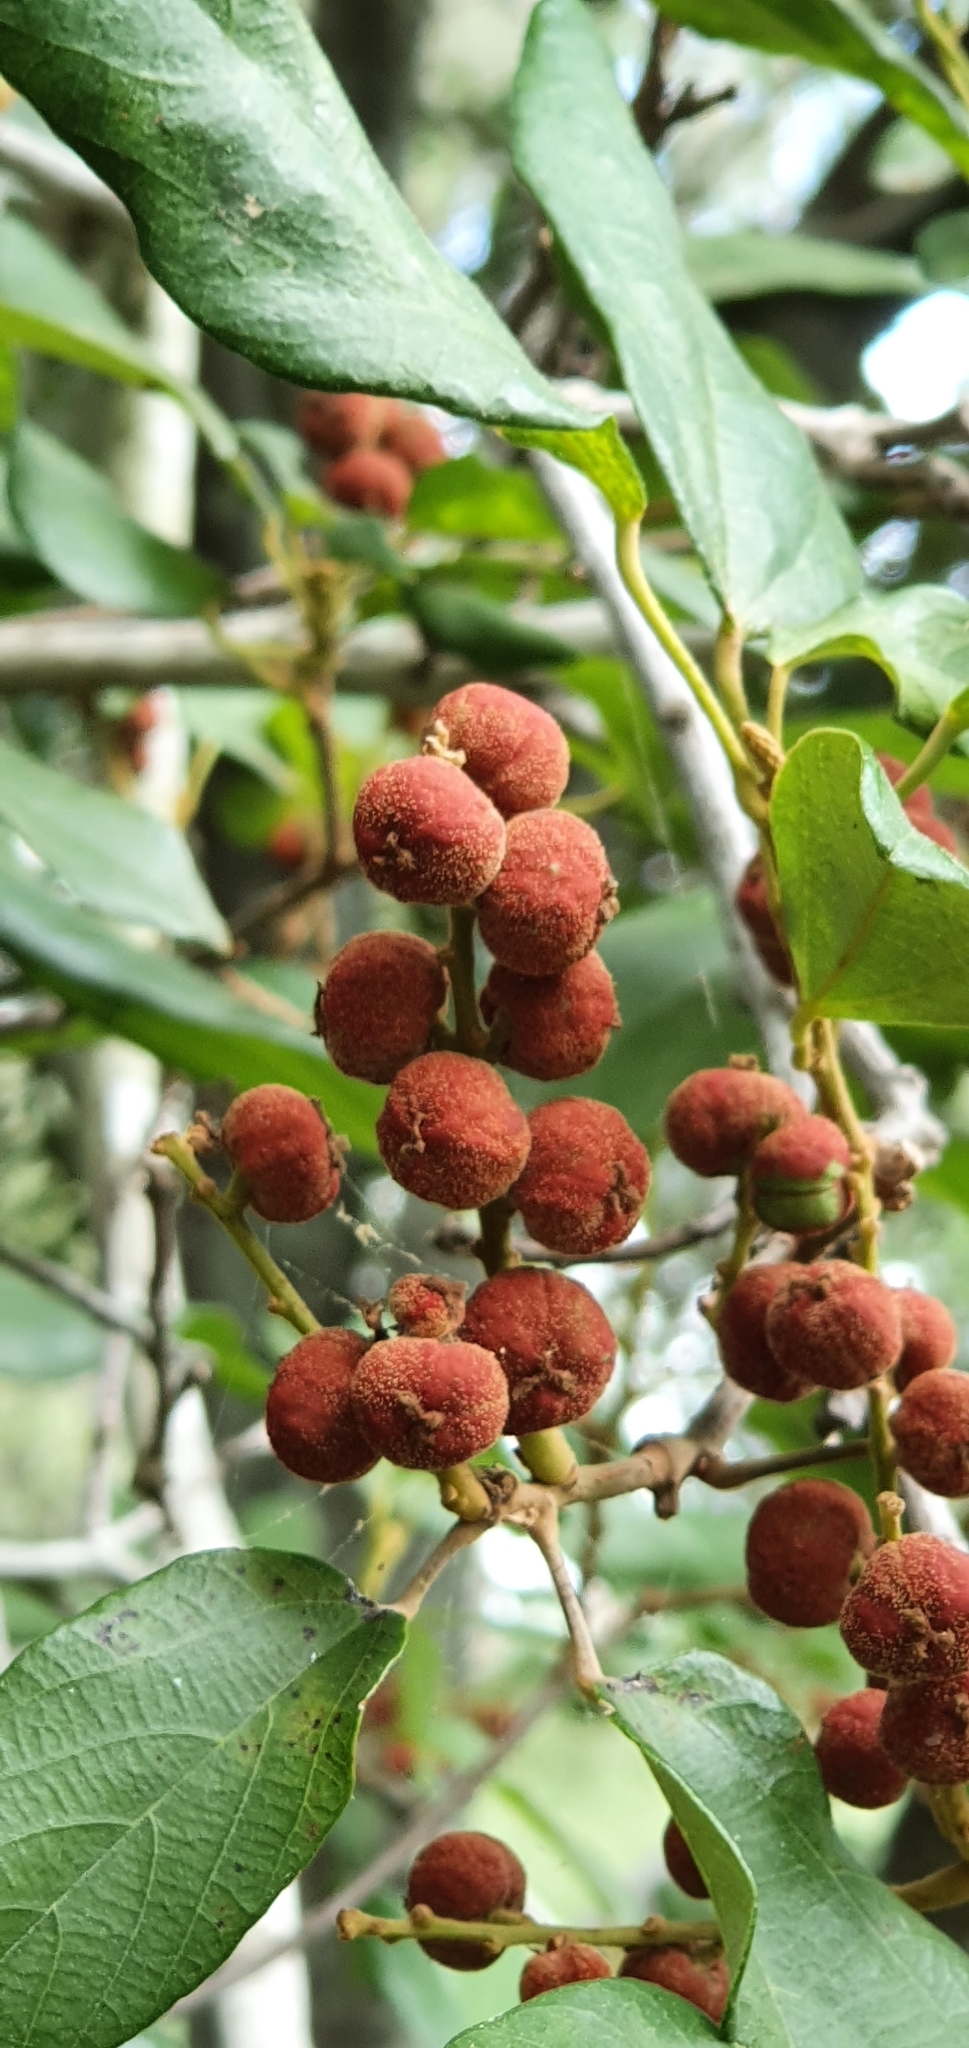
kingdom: Plantae
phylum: Tracheophyta
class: Magnoliopsida
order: Malpighiales
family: Euphorbiaceae
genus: Mallotus
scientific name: Mallotus philippensis
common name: Kamala tree
